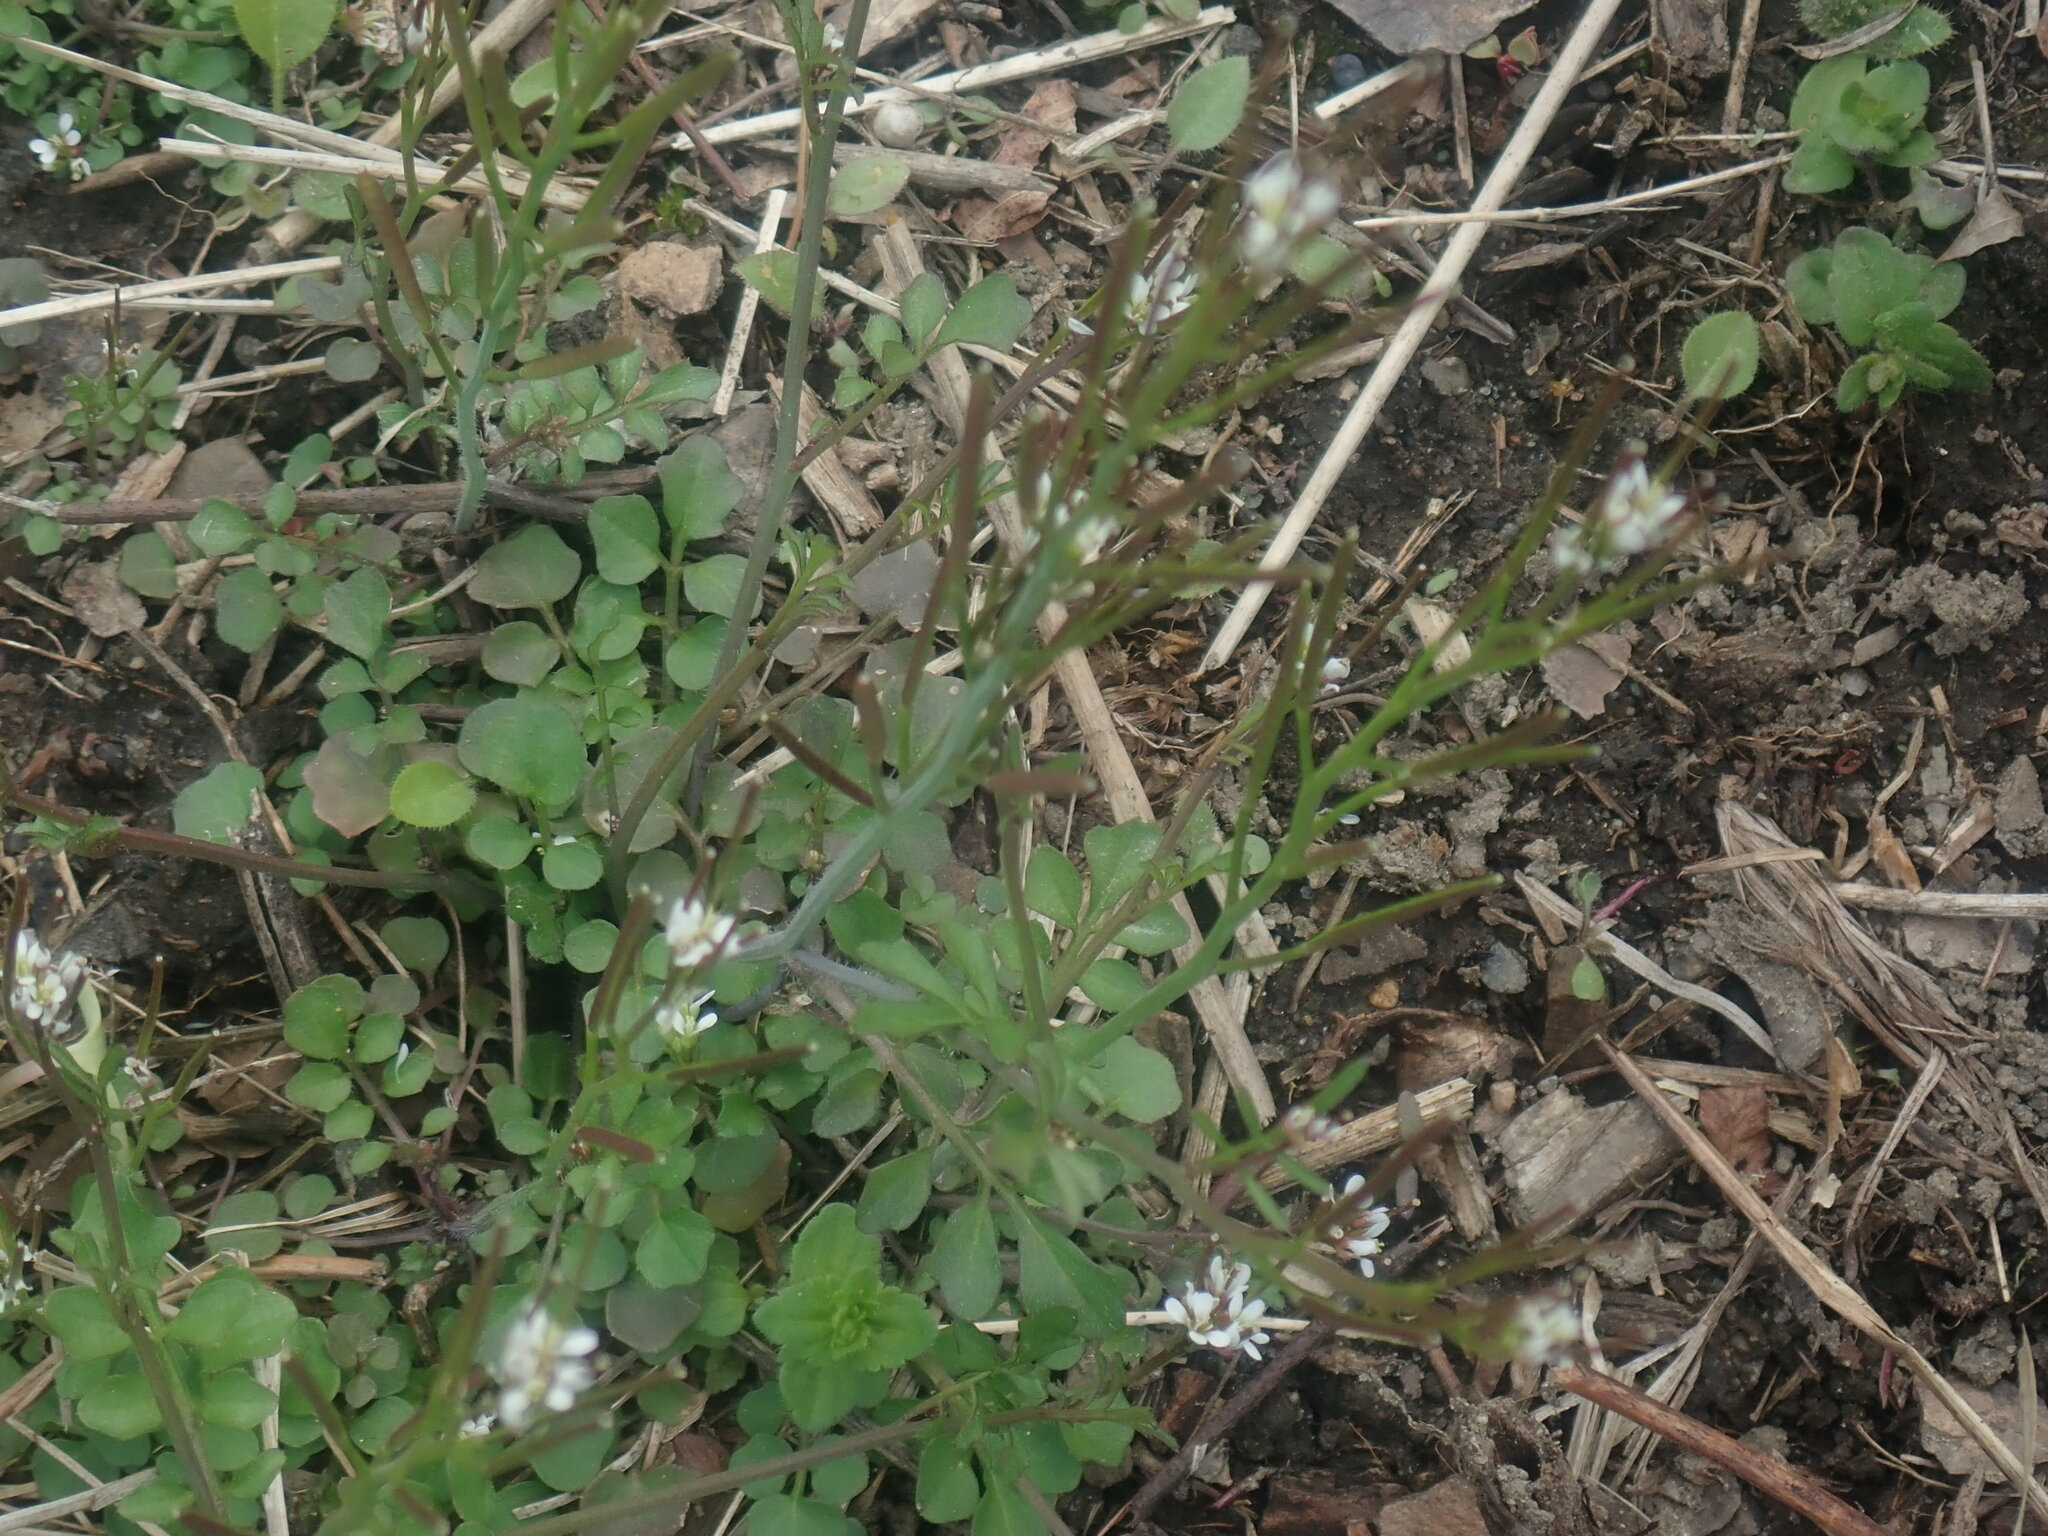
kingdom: Plantae
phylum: Tracheophyta
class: Magnoliopsida
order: Brassicales
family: Brassicaceae
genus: Cardamine
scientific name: Cardamine hirsuta
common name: Hairy bittercress
